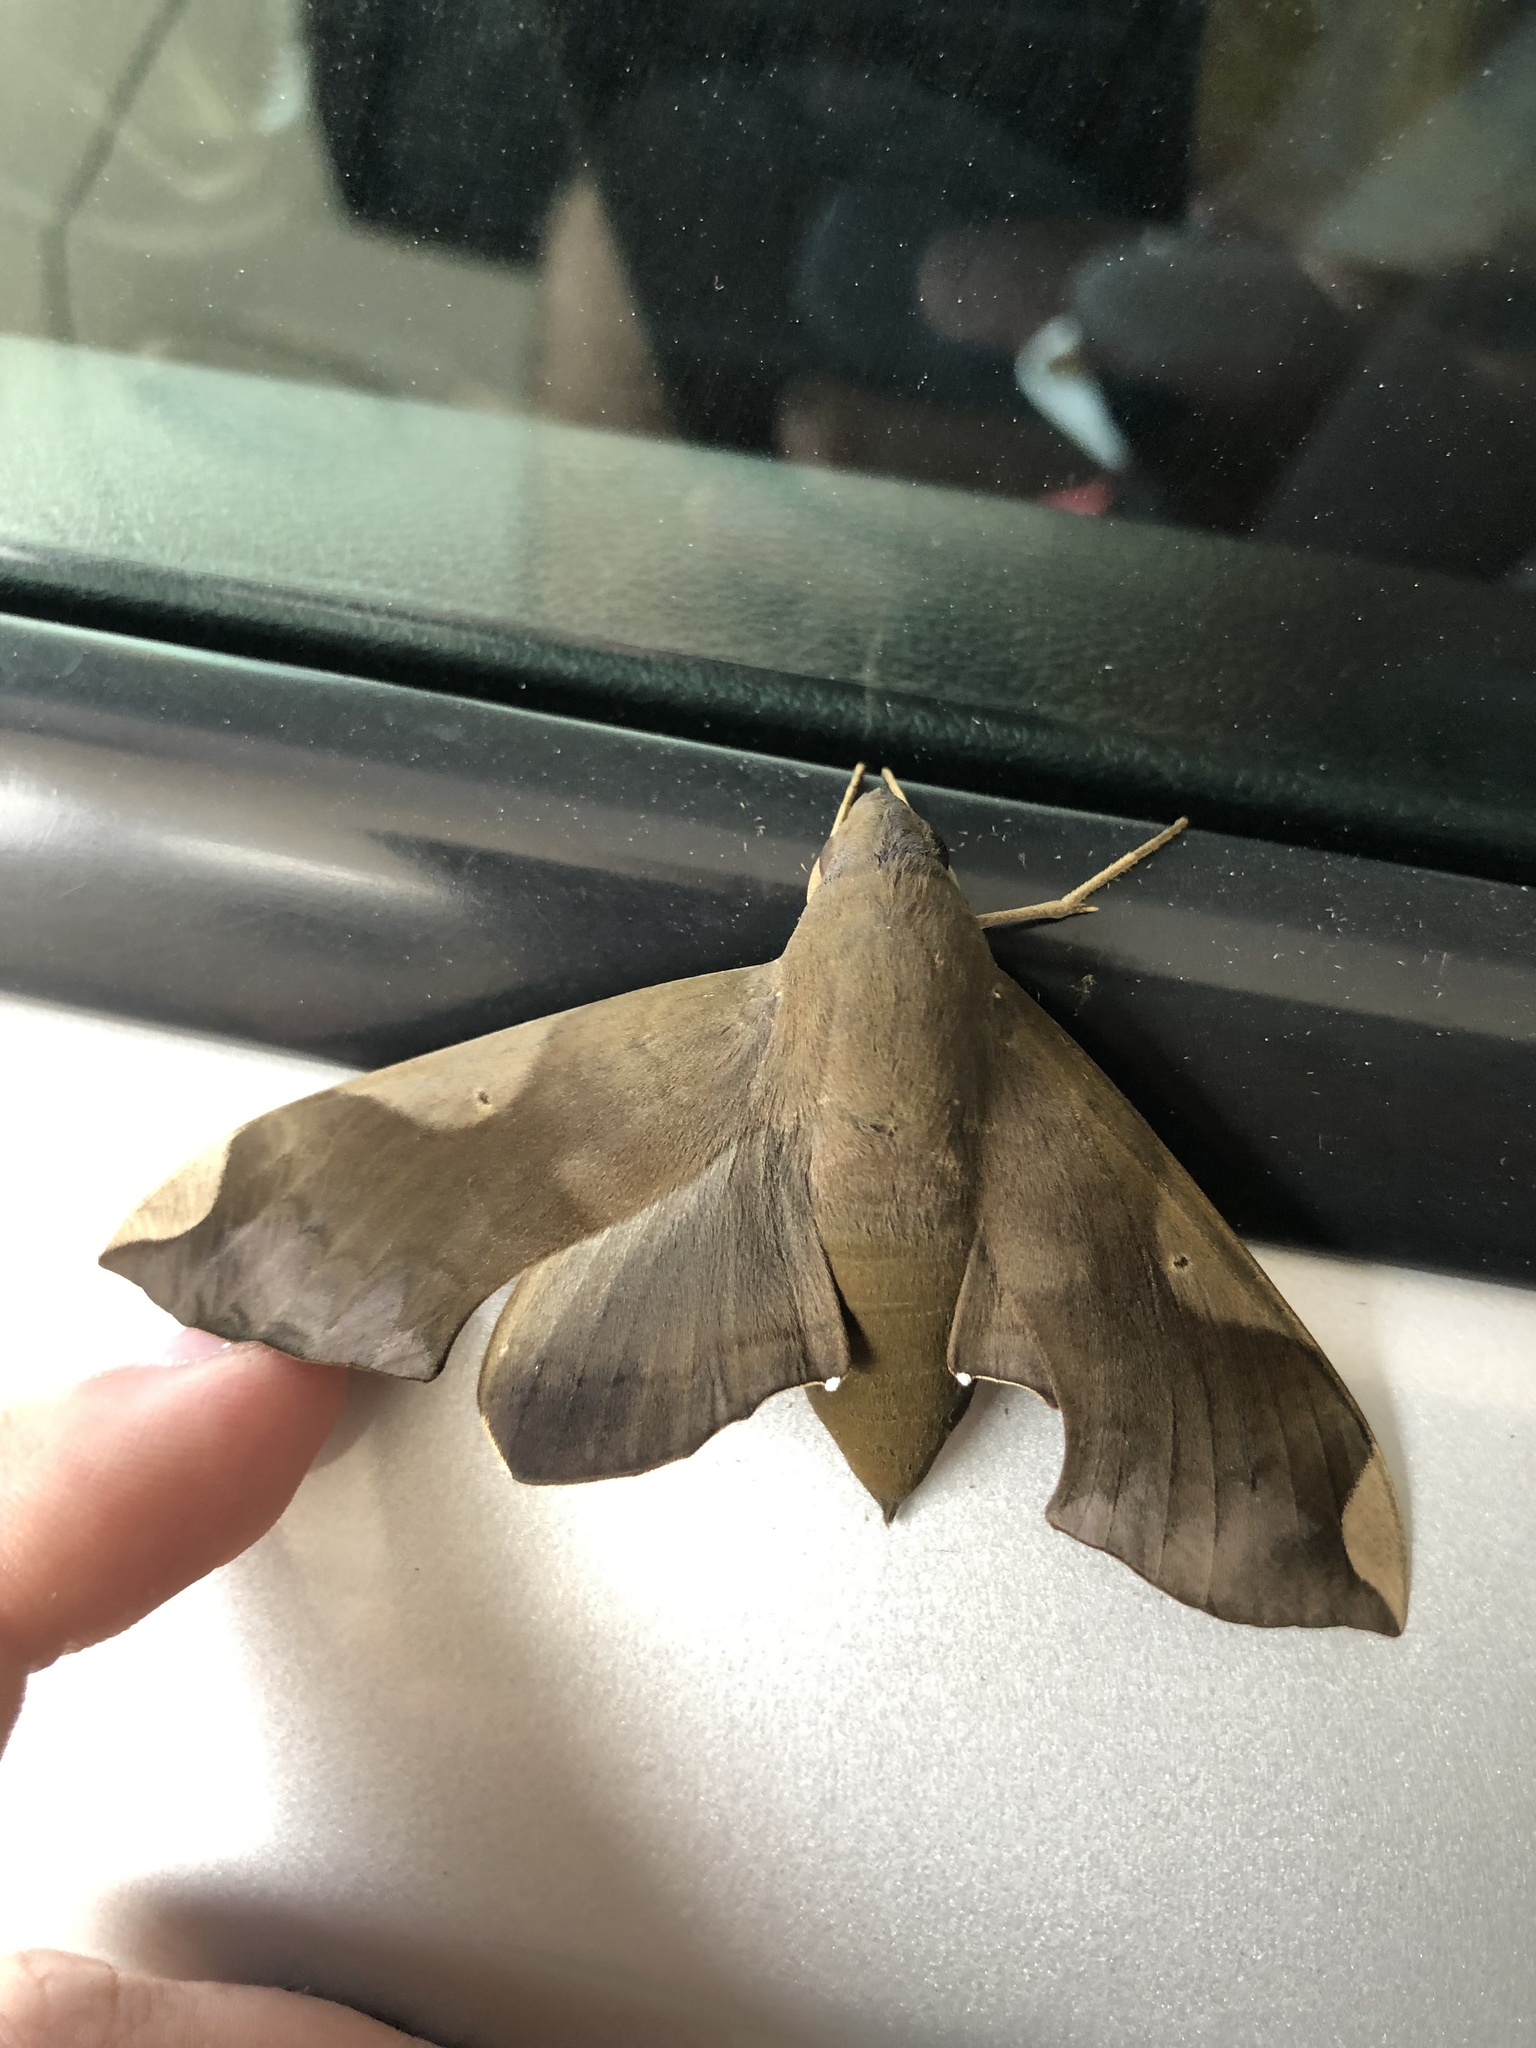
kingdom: Animalia
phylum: Arthropoda
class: Insecta
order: Lepidoptera
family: Sphingidae
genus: Pachylia
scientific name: Pachylia syces
